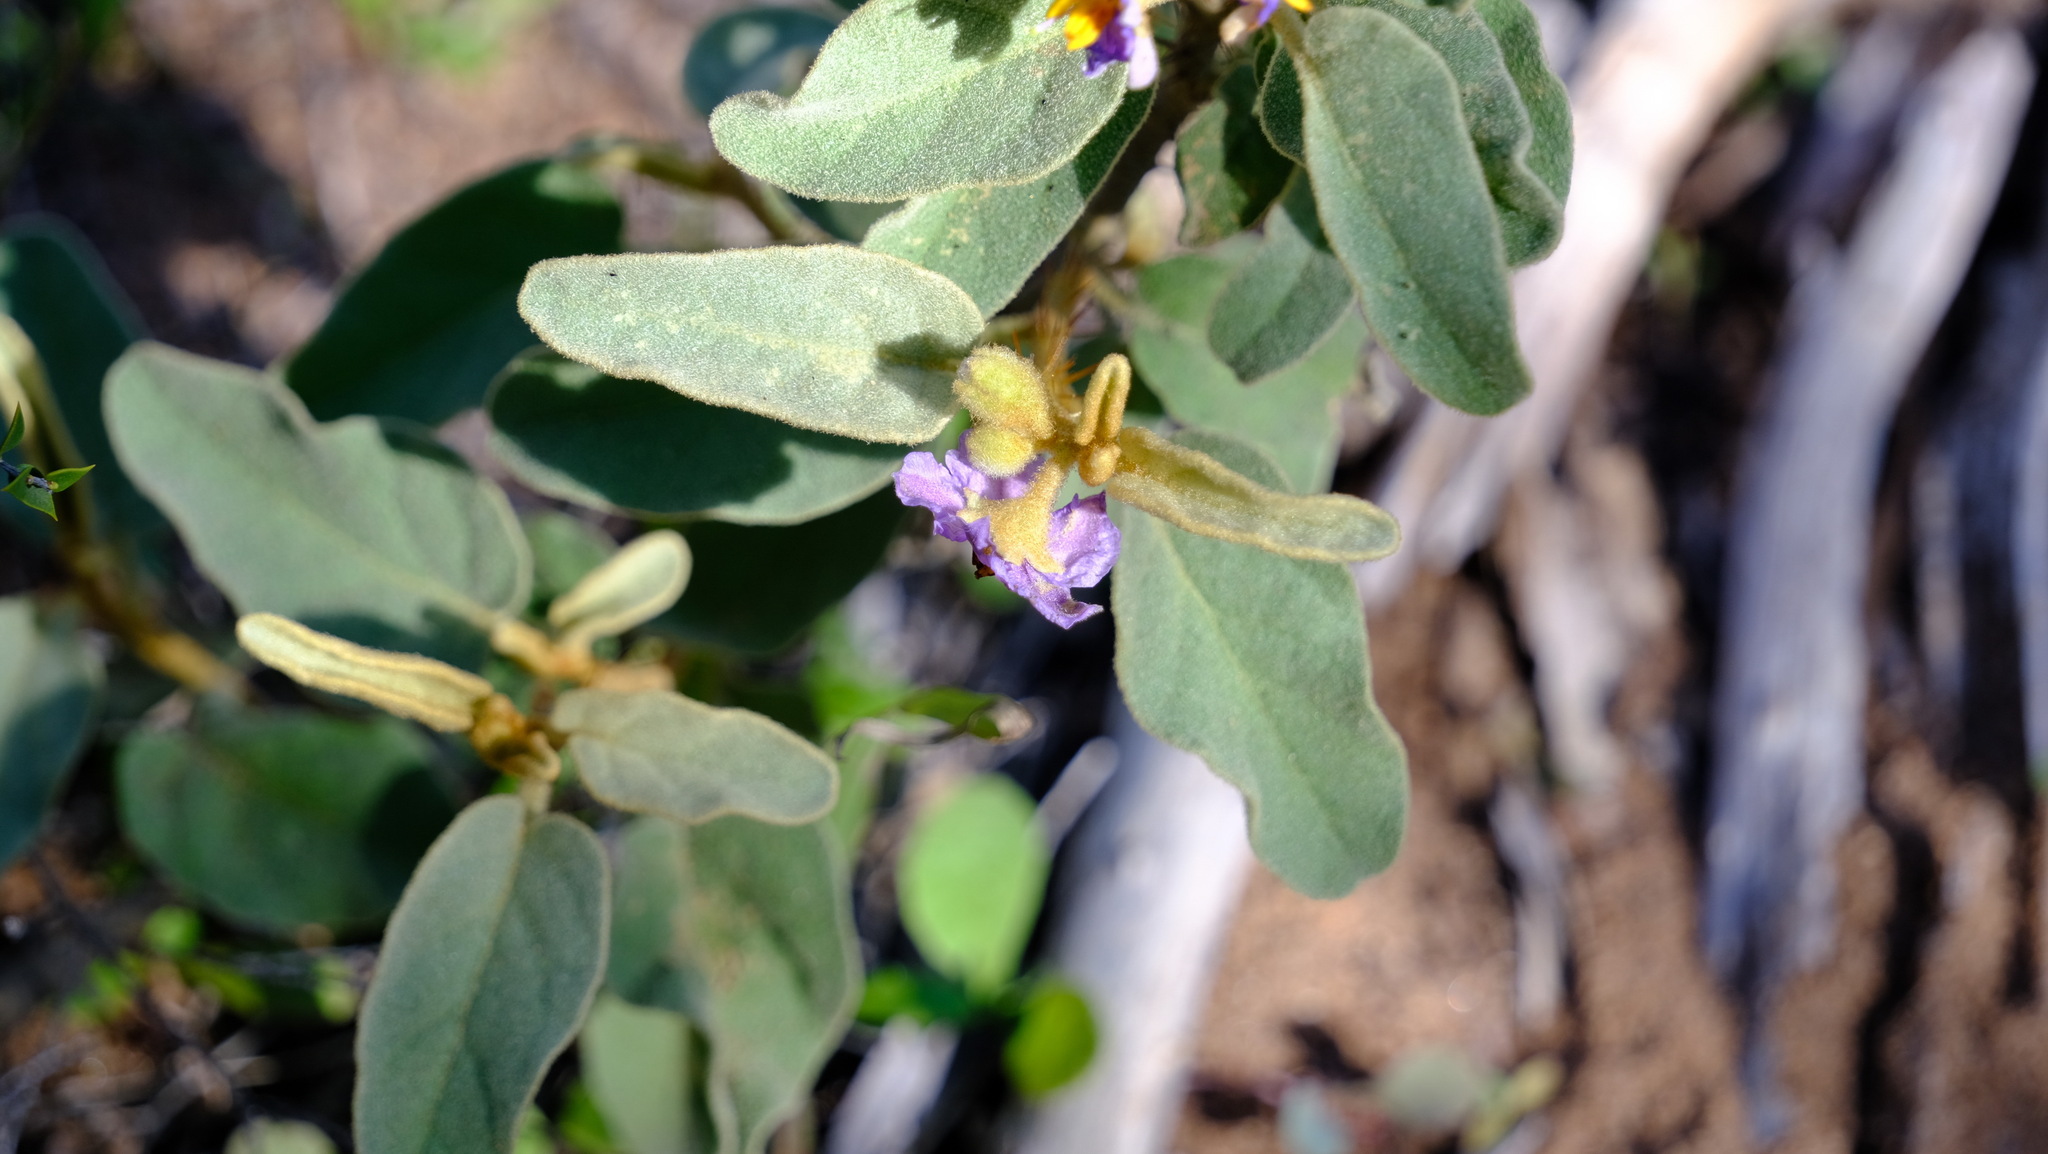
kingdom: Plantae
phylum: Tracheophyta
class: Magnoliopsida
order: Solanales
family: Solanaceae
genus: Solanum
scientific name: Solanum oldfieldii
